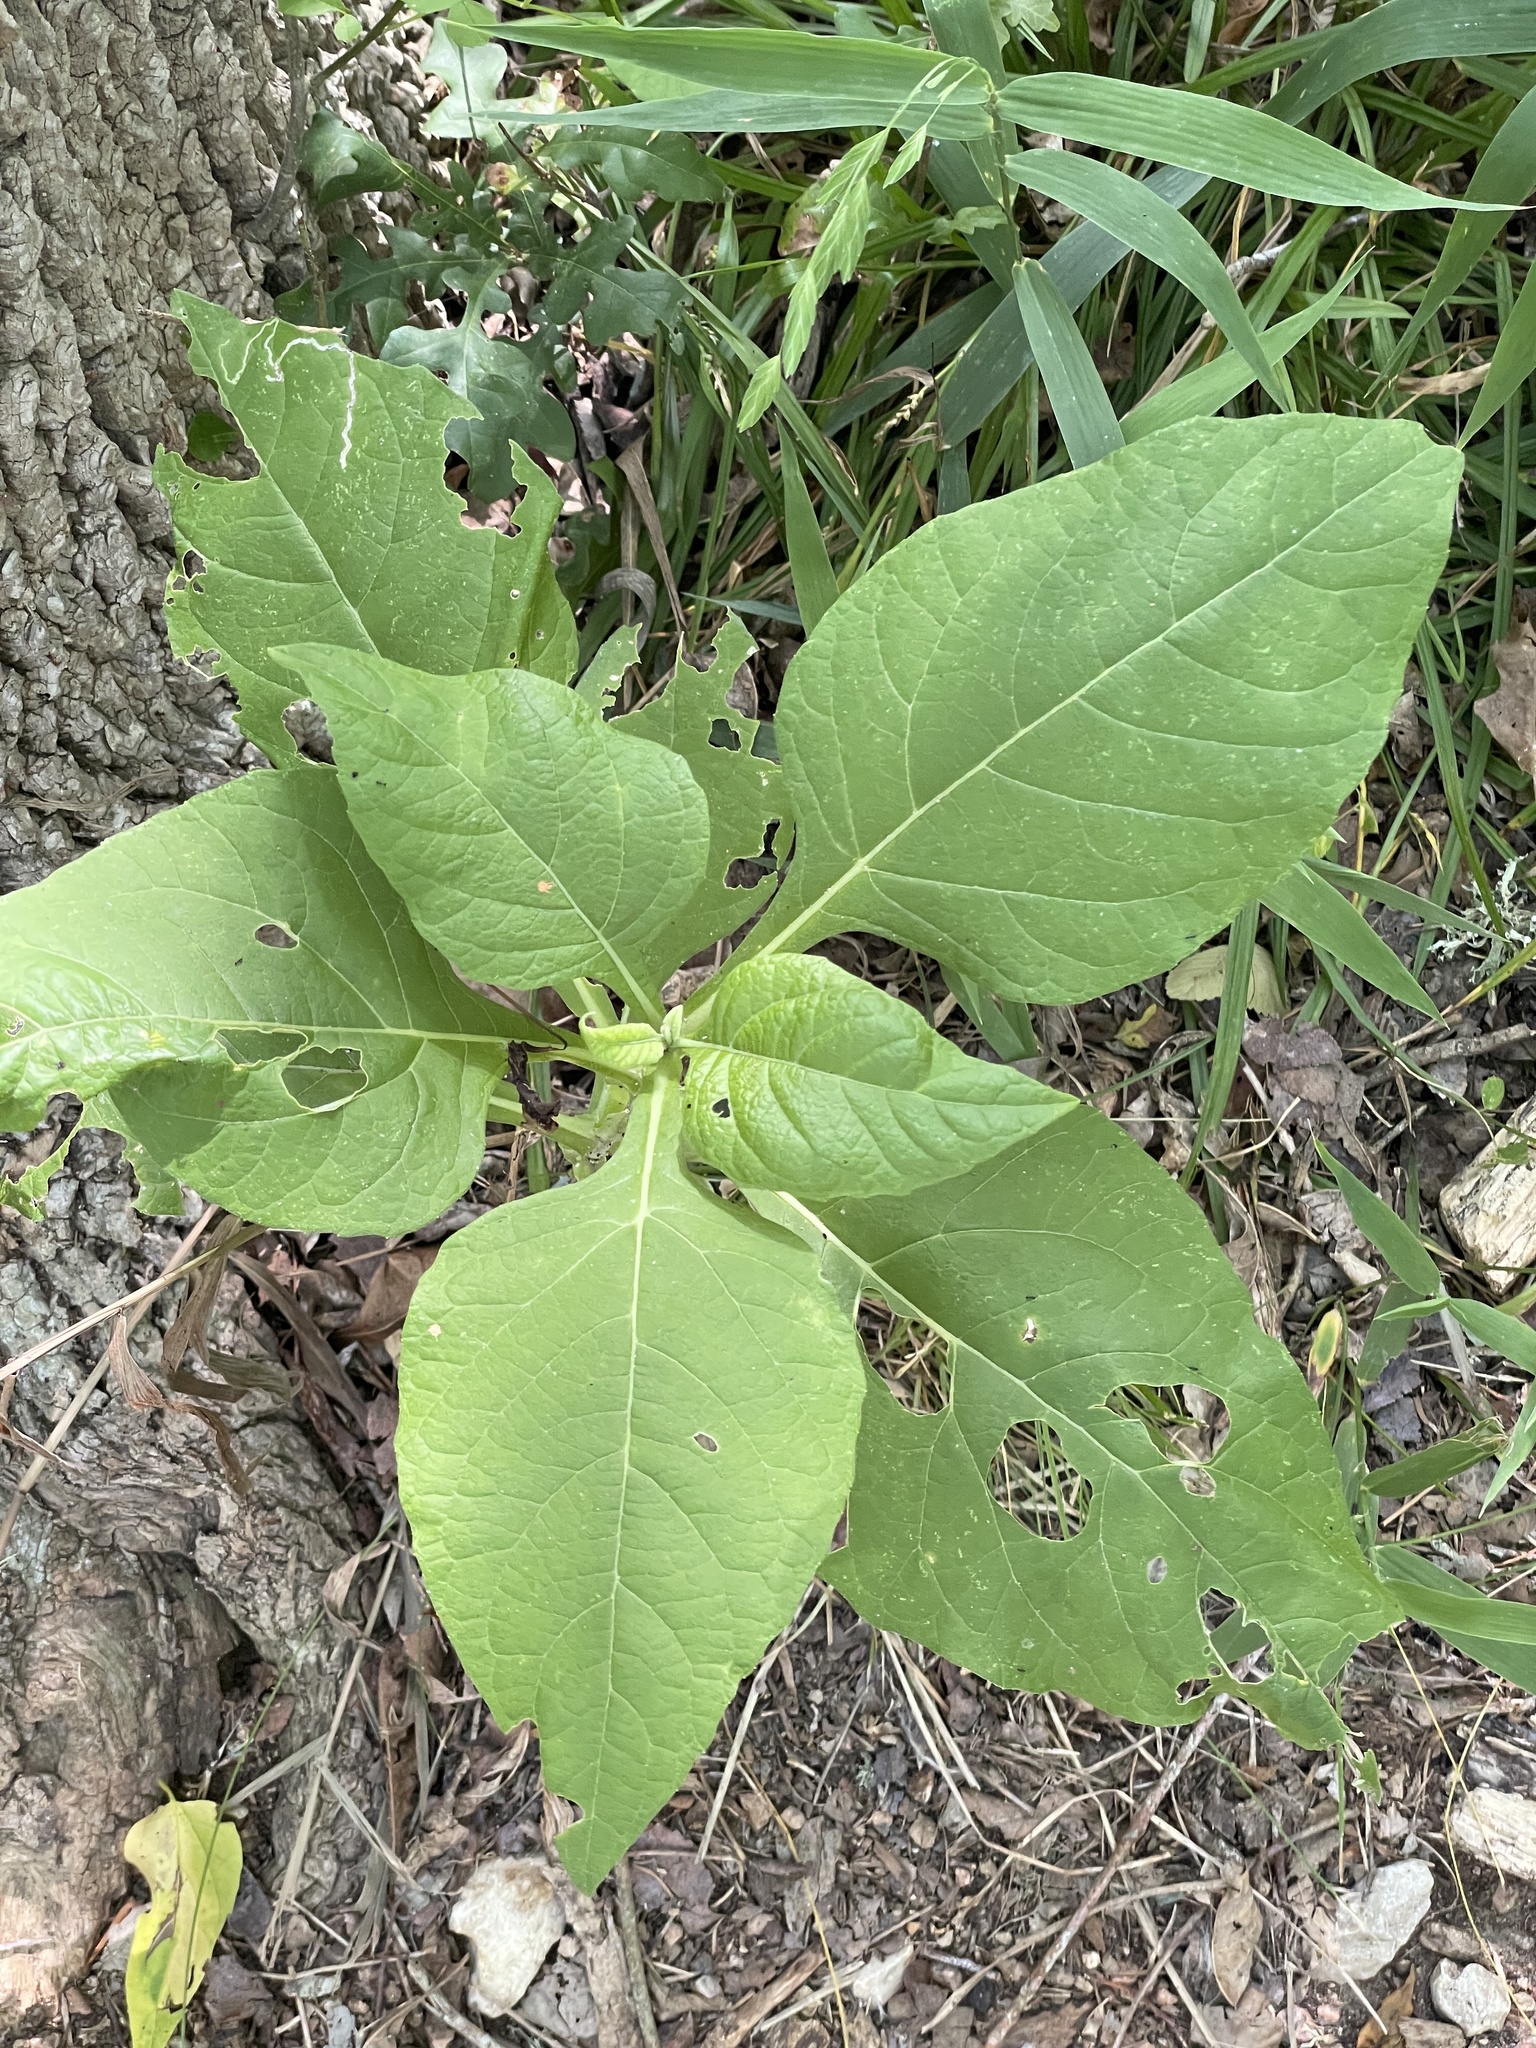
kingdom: Plantae
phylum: Tracheophyta
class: Magnoliopsida
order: Asterales
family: Asteraceae
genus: Verbesina
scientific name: Verbesina virginica
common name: Frostweed
